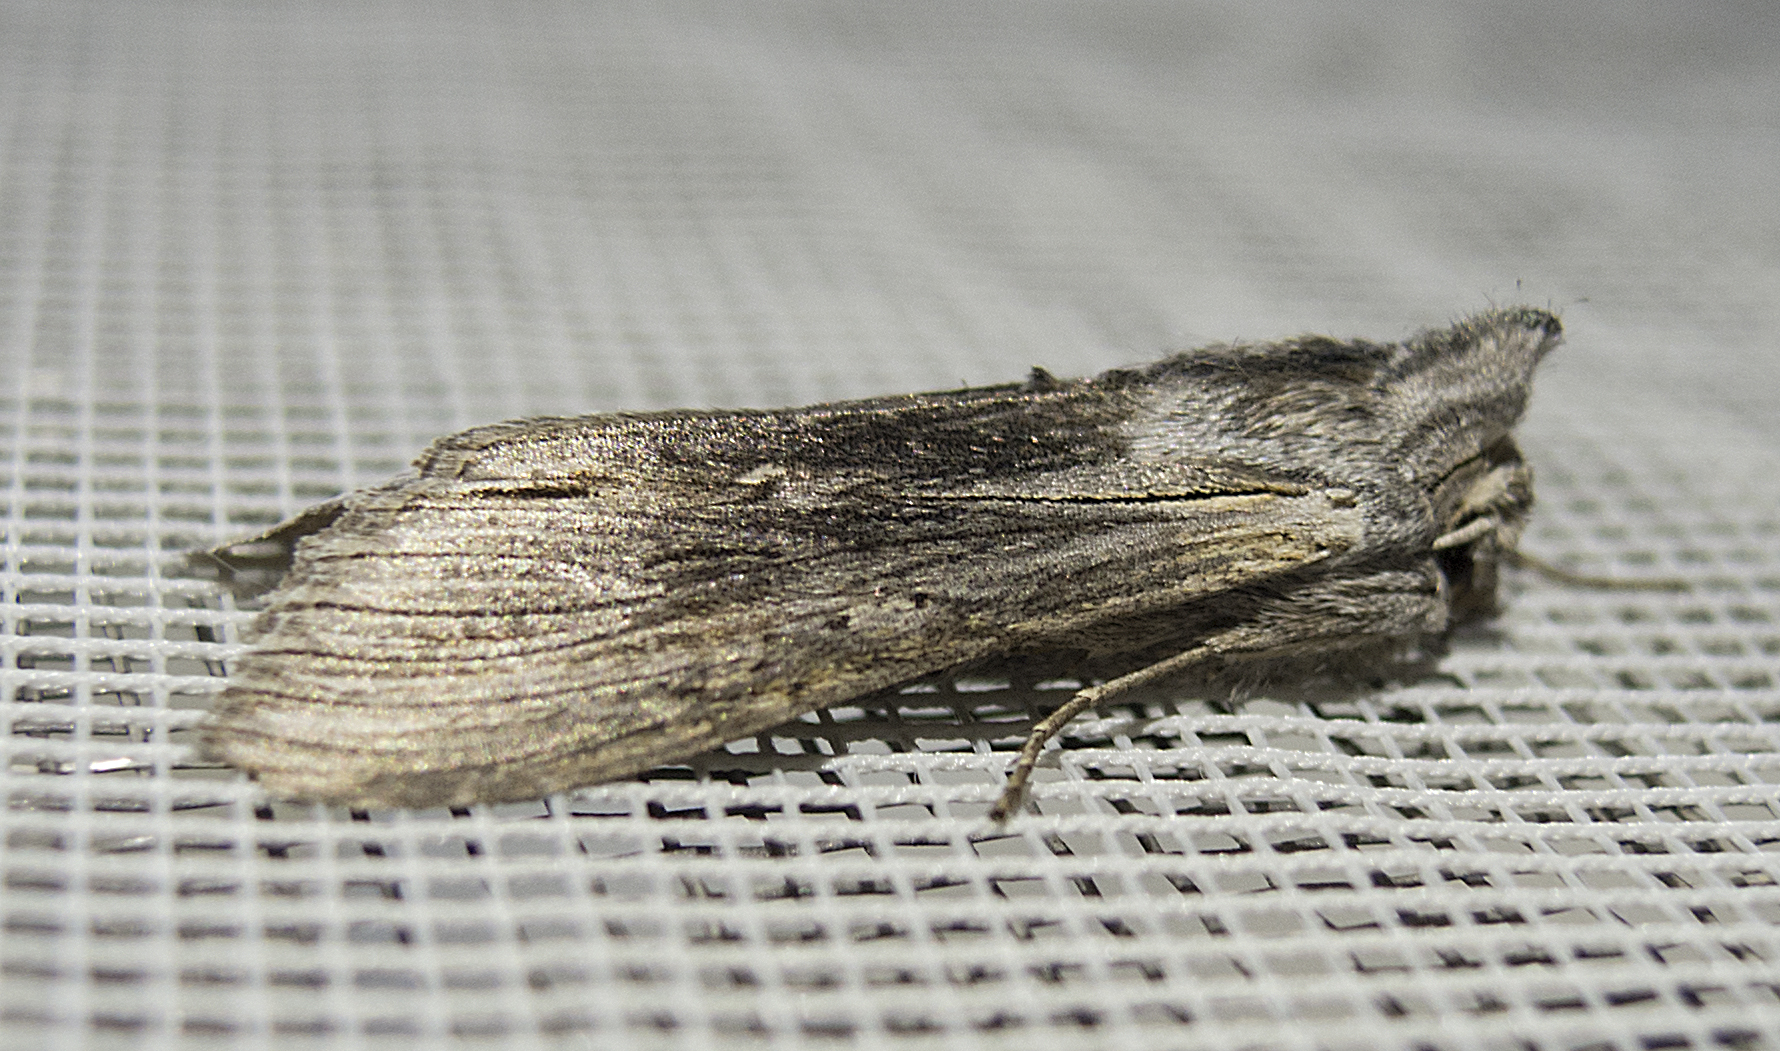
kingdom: Animalia
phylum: Arthropoda
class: Insecta
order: Lepidoptera
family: Noctuidae
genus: Cucullia
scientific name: Cucullia chamomillae
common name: Chamomile shark
